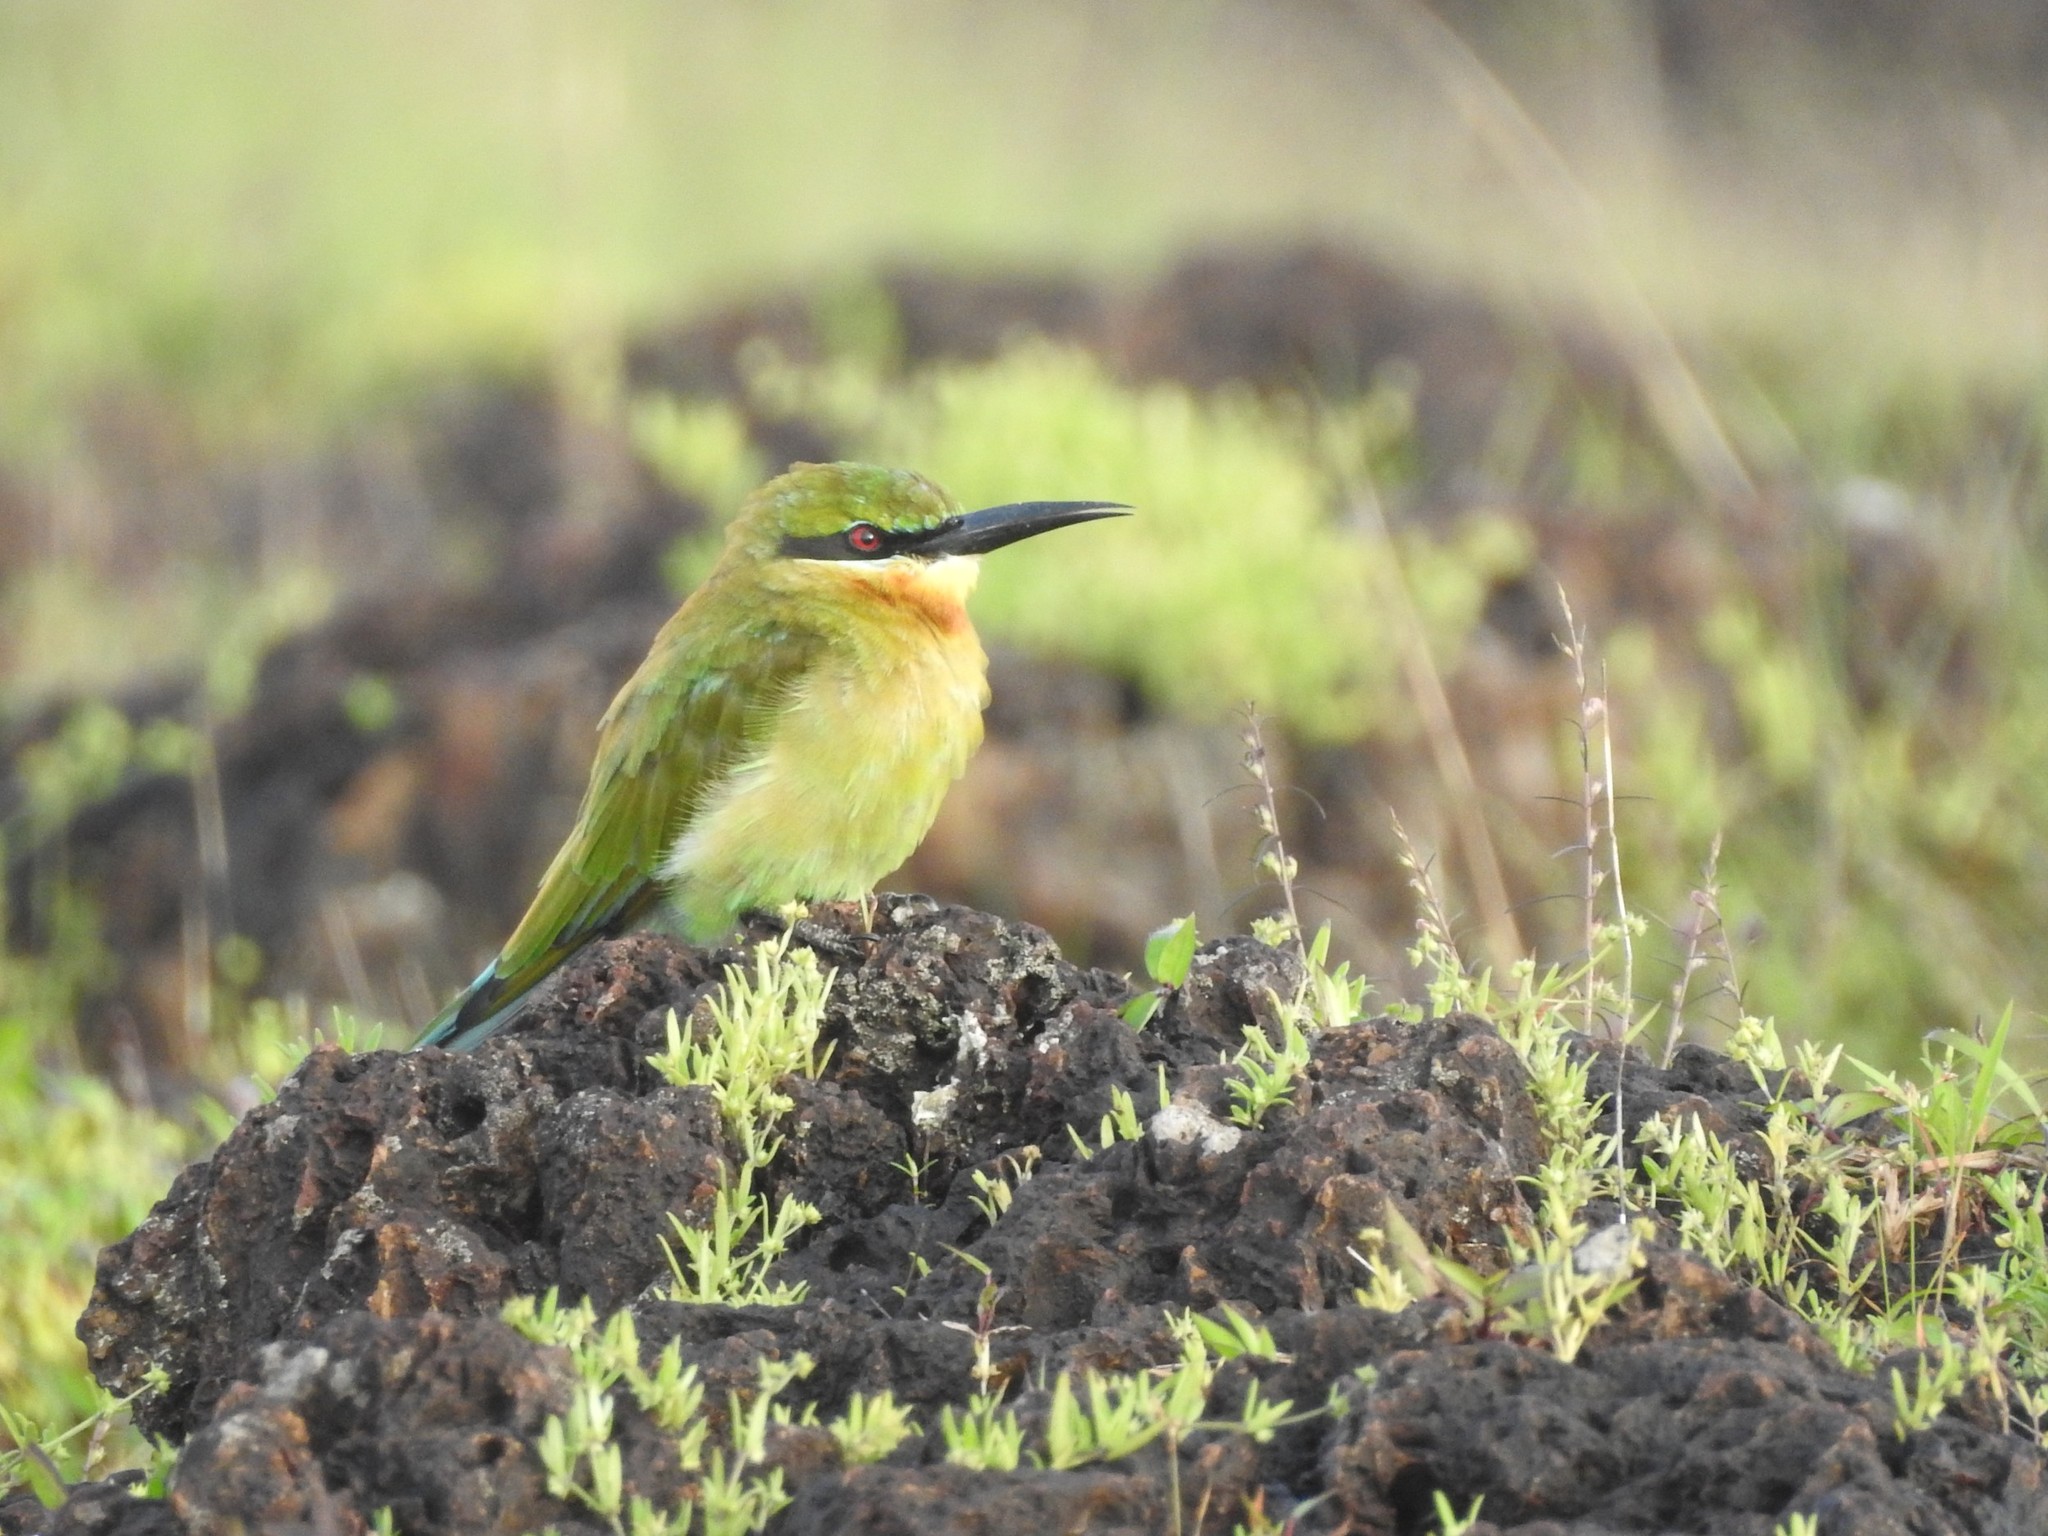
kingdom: Animalia
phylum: Chordata
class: Aves
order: Coraciiformes
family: Meropidae
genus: Merops
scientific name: Merops philippinus
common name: Blue-tailed bee-eater
